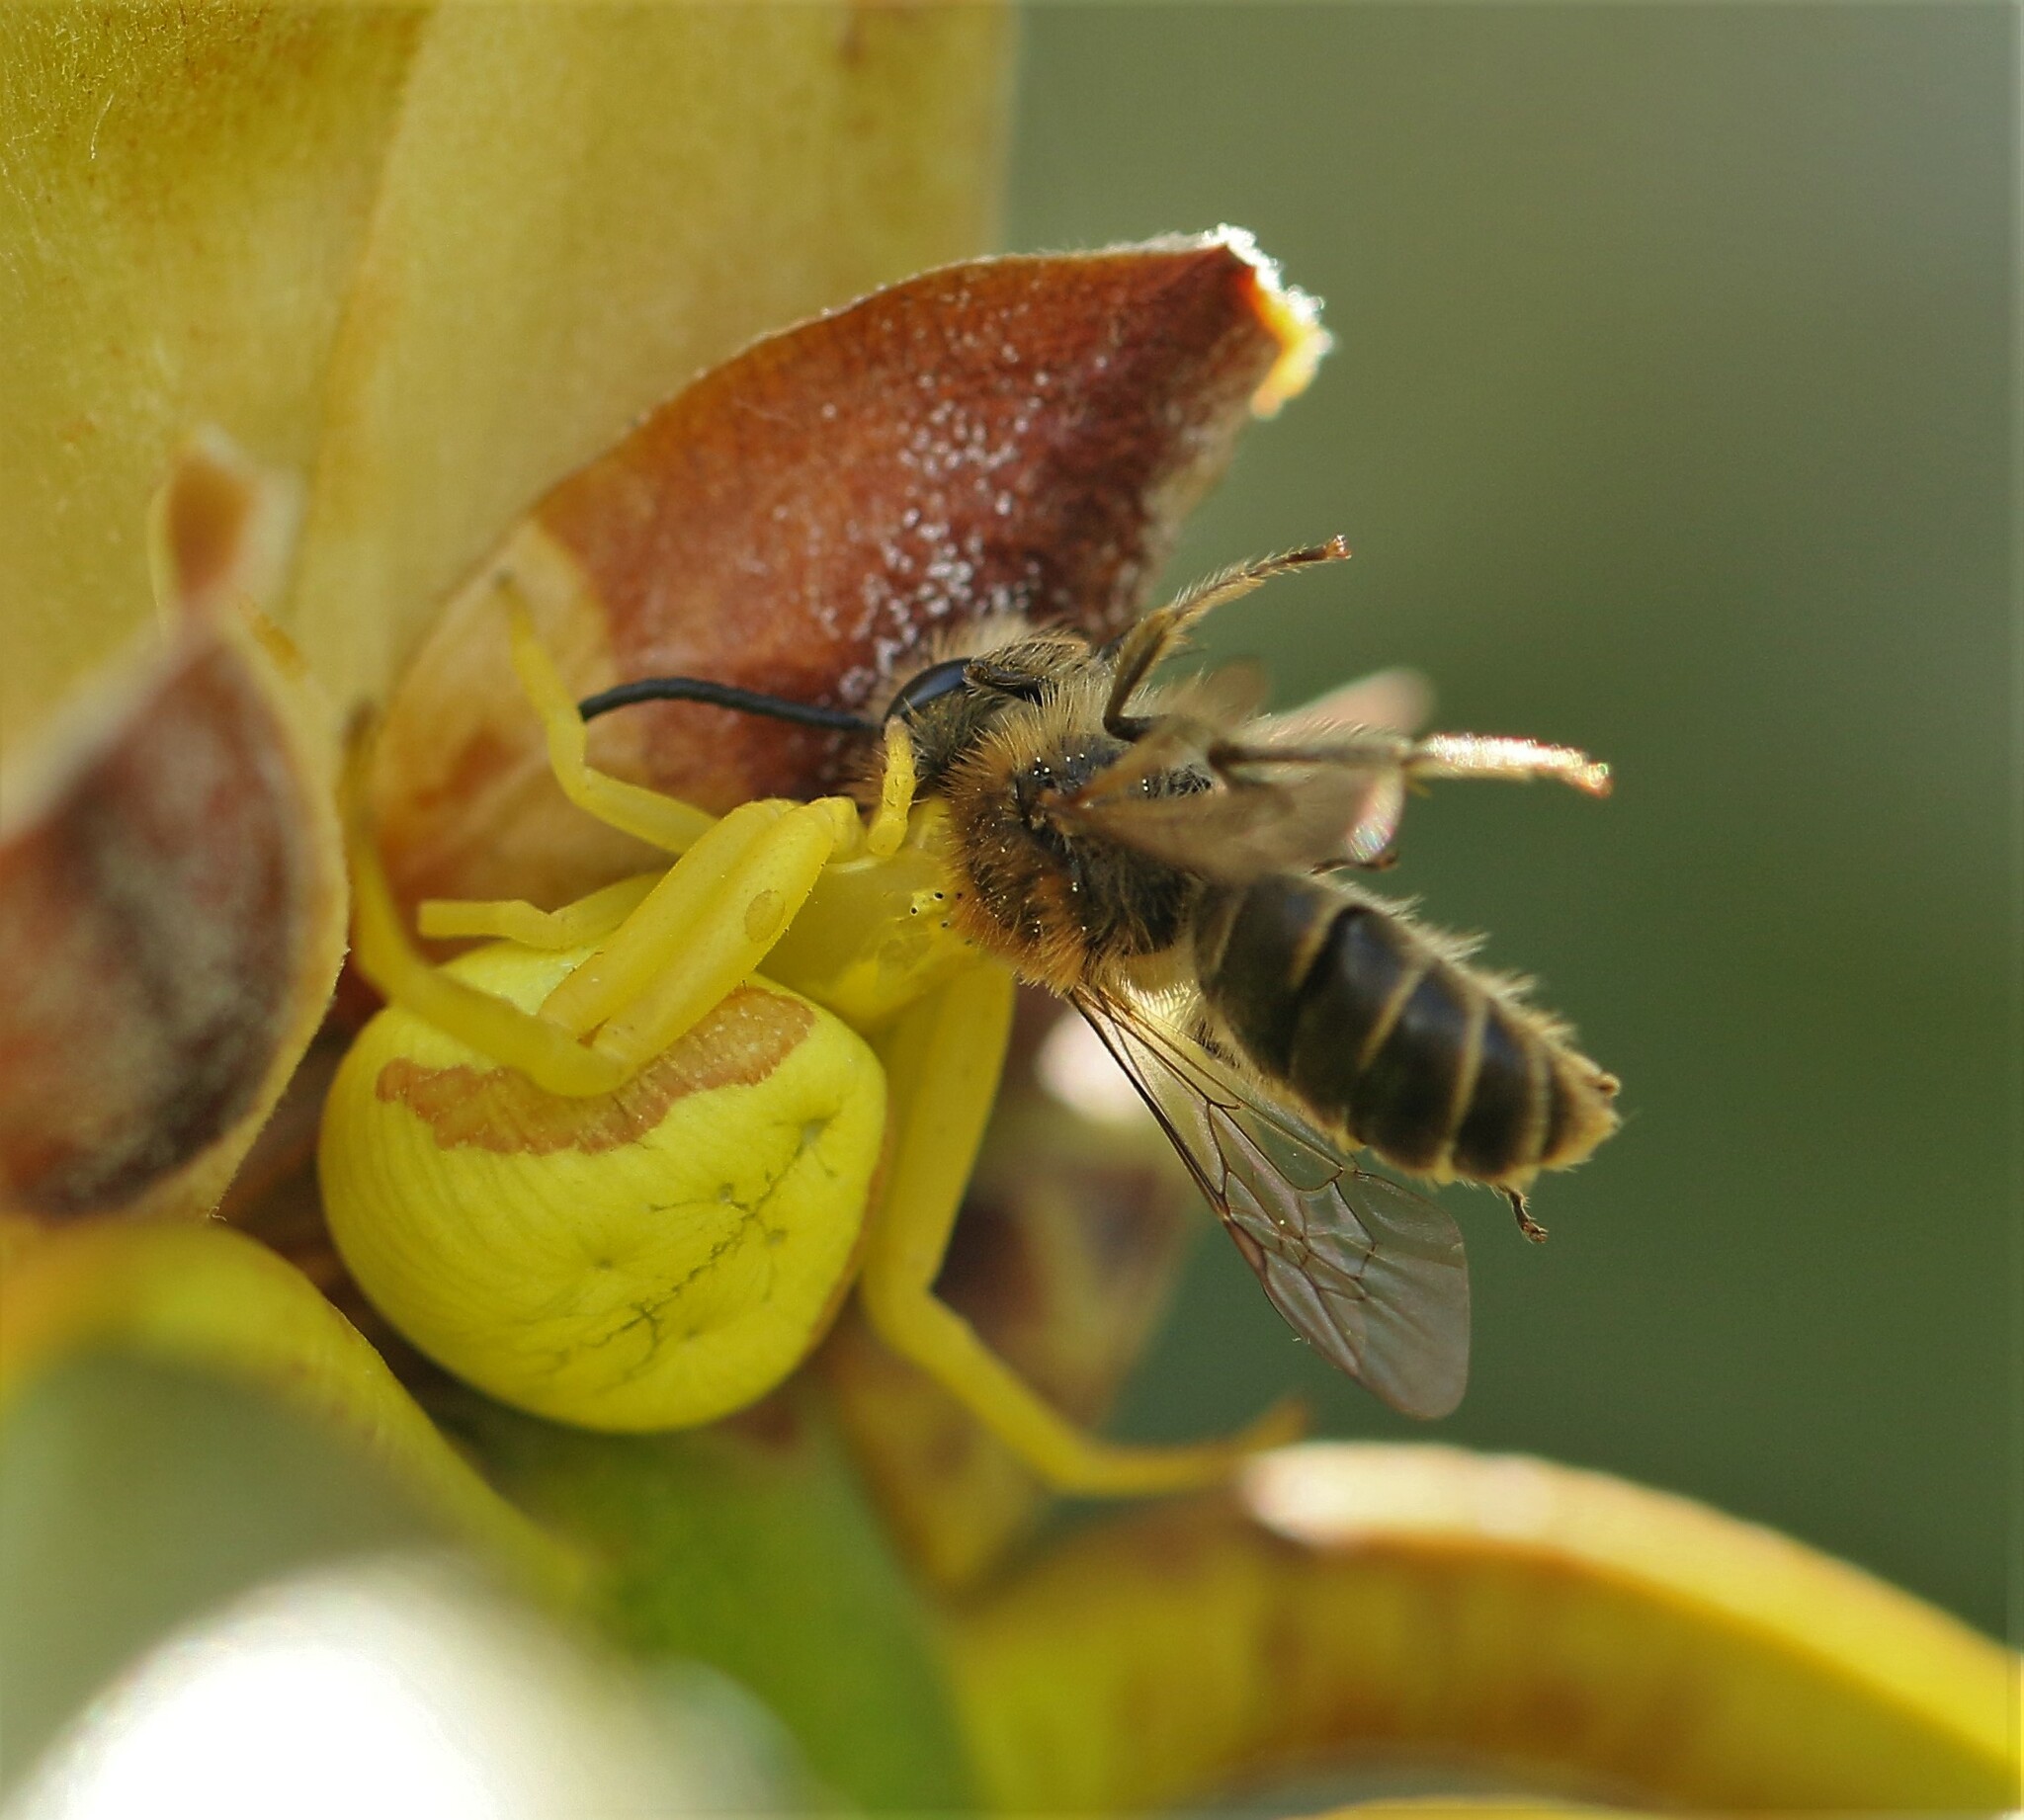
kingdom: Animalia
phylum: Arthropoda
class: Arachnida
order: Araneae
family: Thomisidae
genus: Misumena
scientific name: Misumena vatia
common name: Goldenrod crab spider
